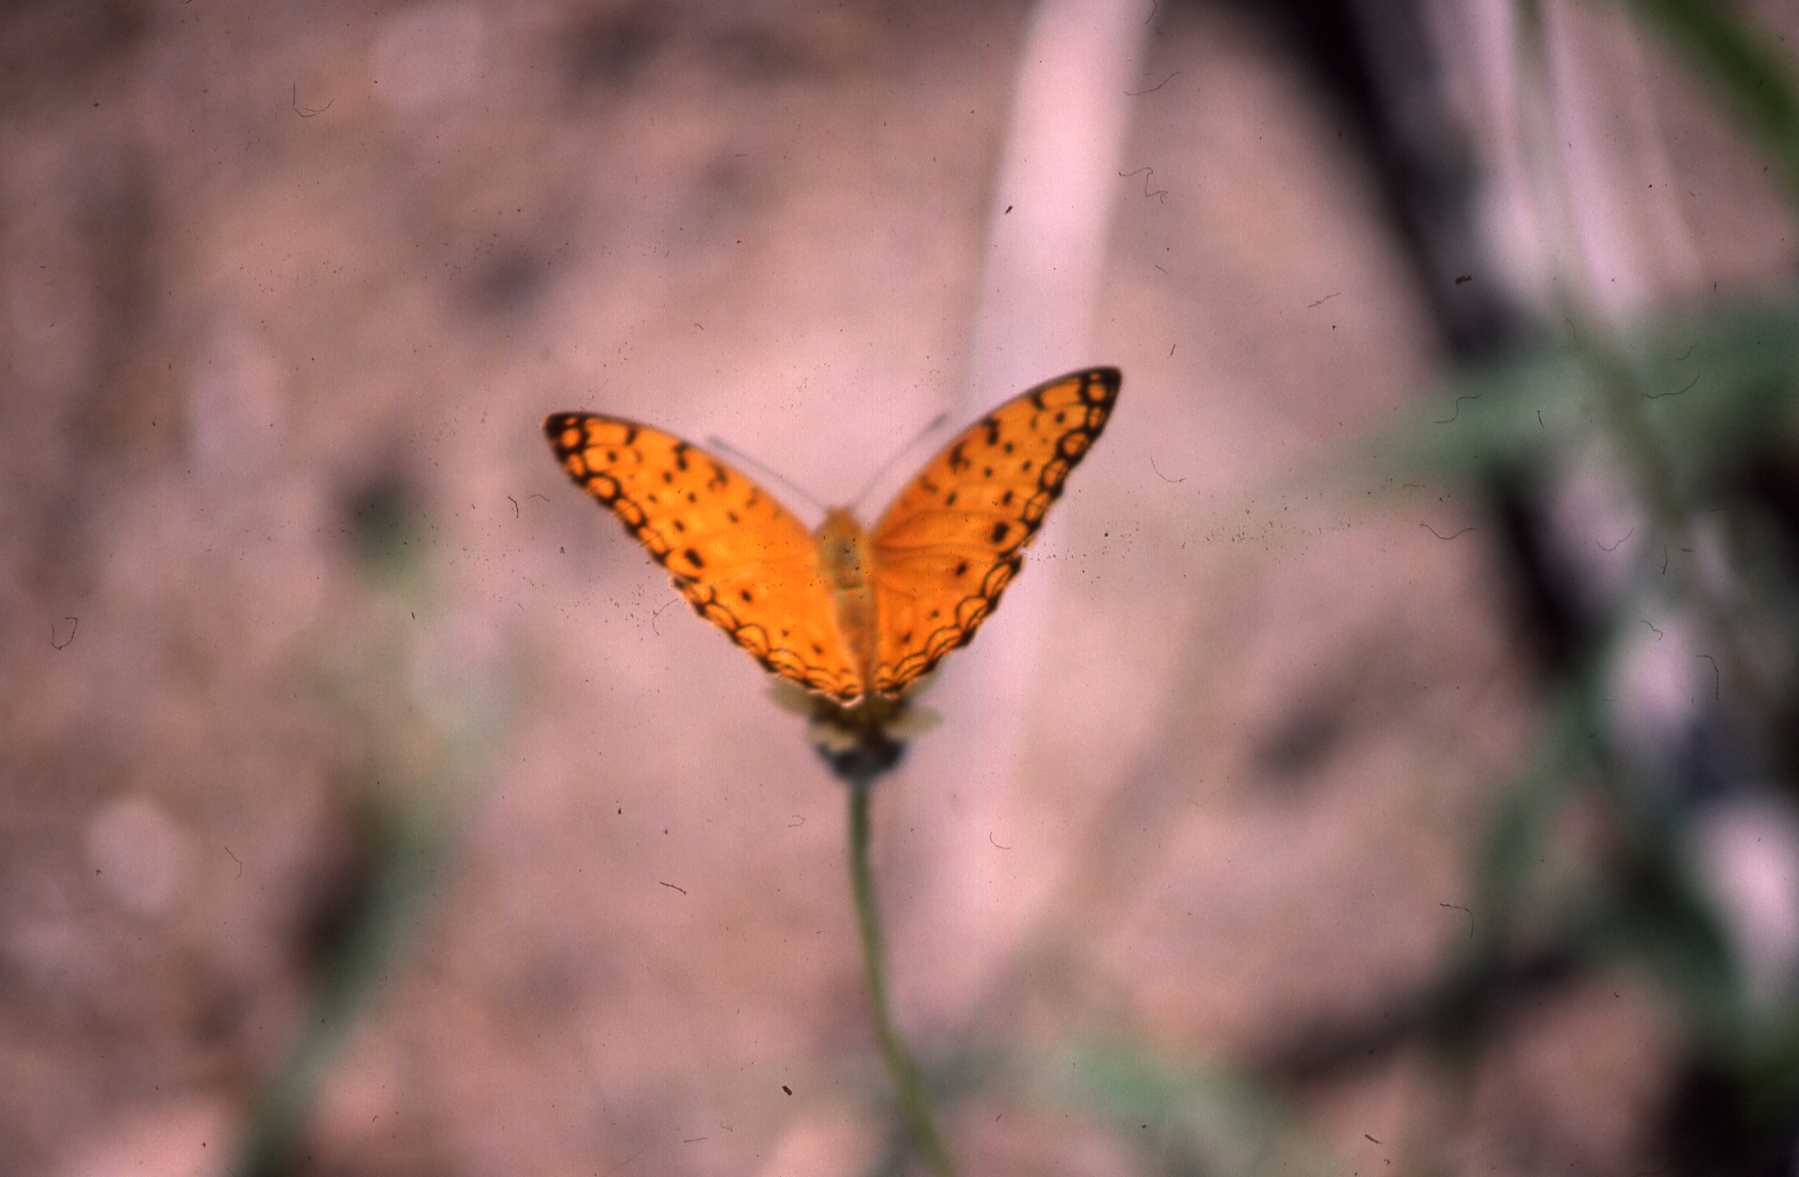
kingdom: Animalia
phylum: Arthropoda
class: Insecta
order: Lepidoptera
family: Nymphalidae
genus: Phalanta
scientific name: Phalanta phalantha
